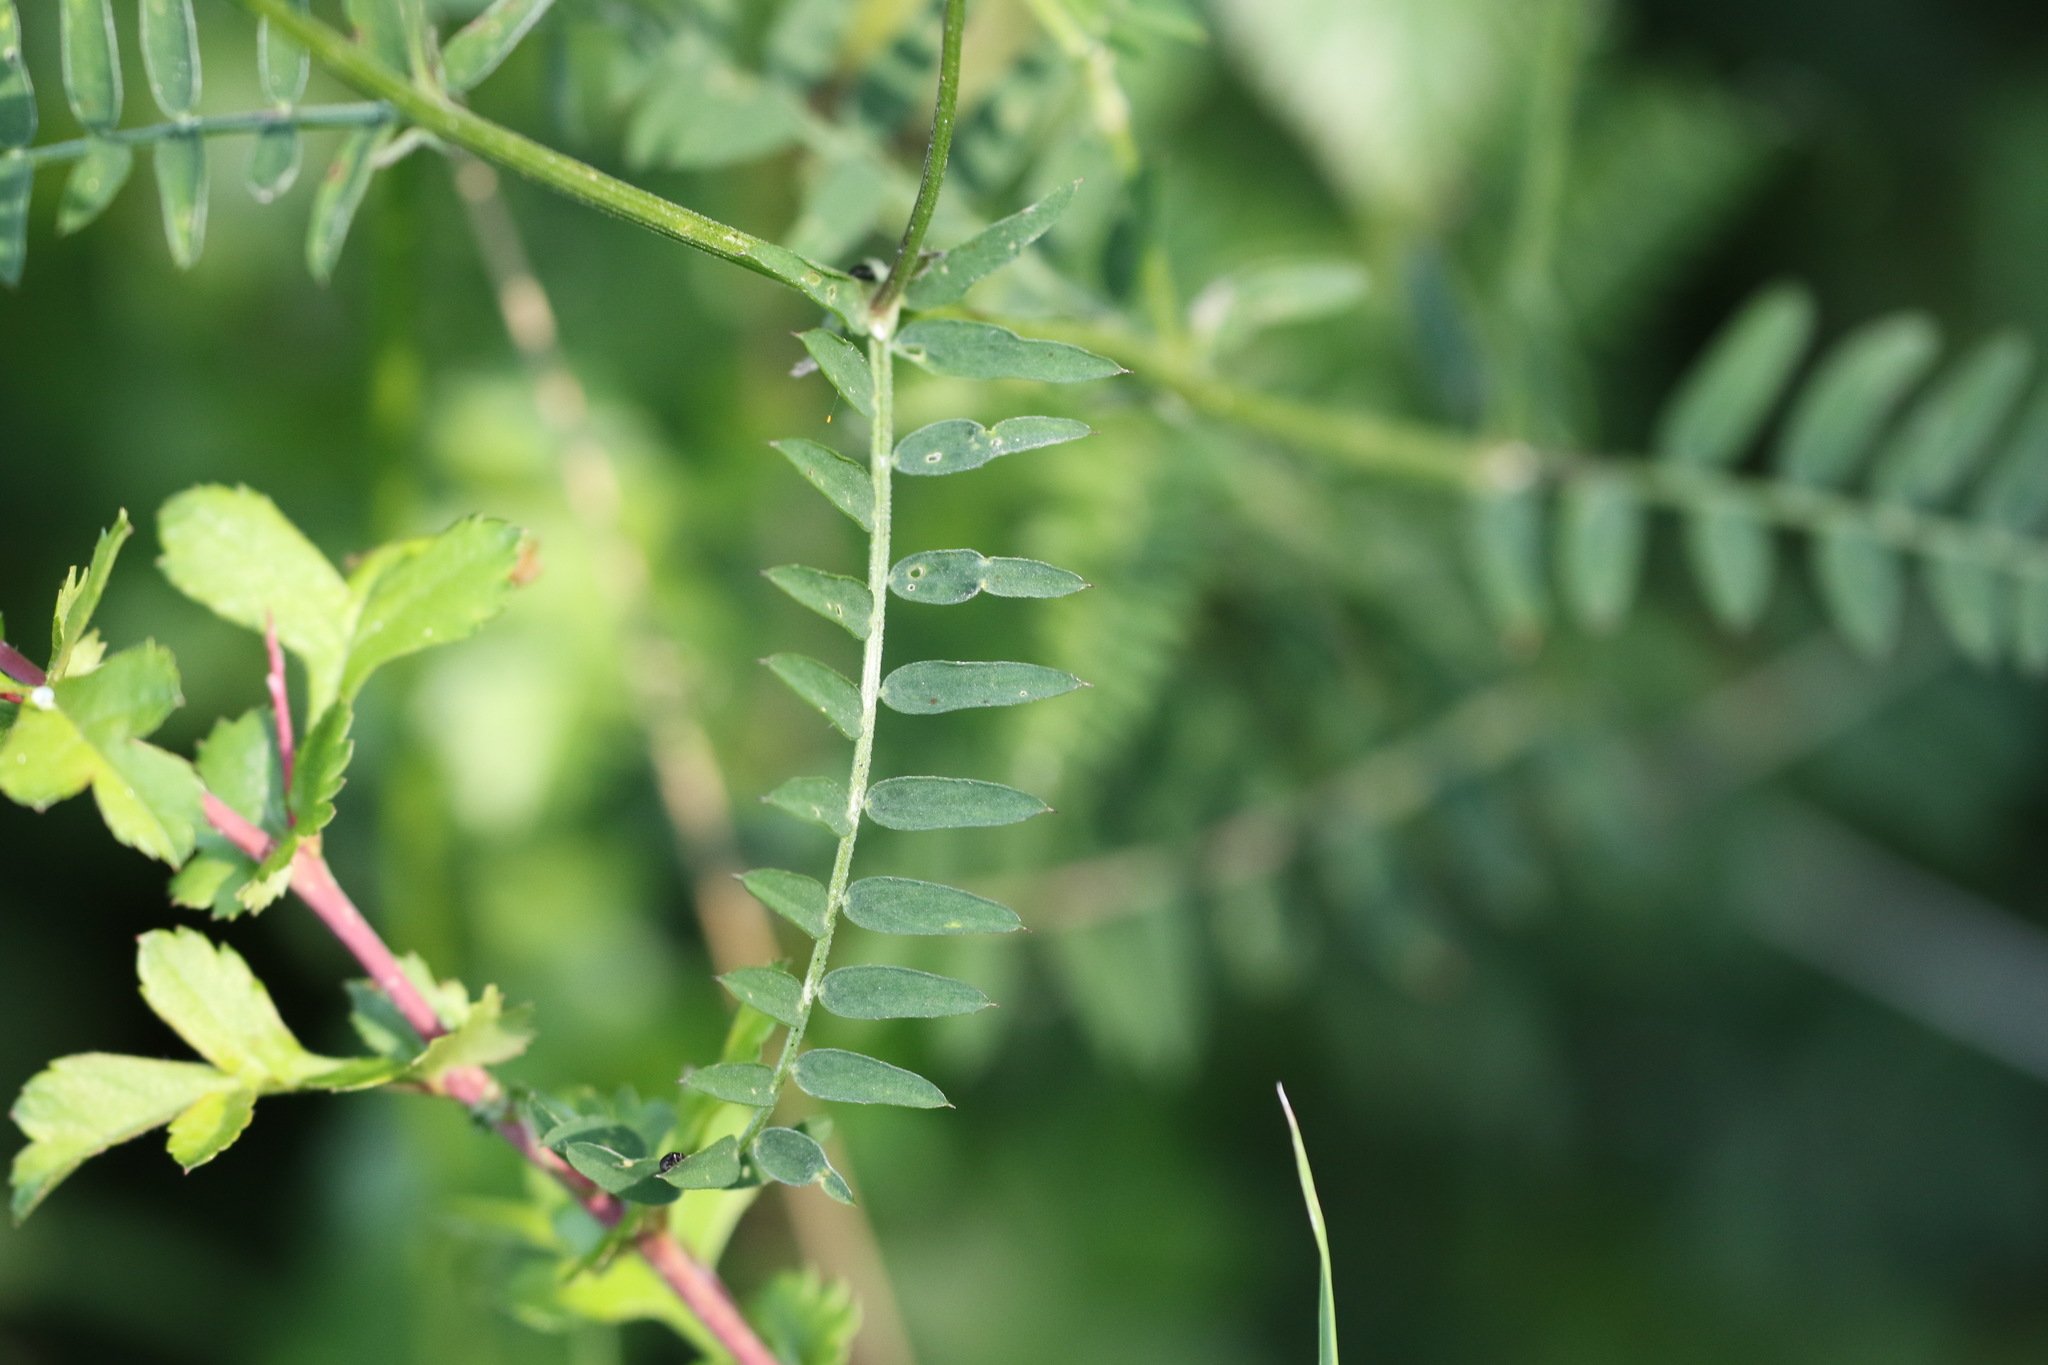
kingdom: Plantae
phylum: Tracheophyta
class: Magnoliopsida
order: Fabales
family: Fabaceae
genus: Vicia
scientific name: Vicia cracca
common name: Bird vetch
